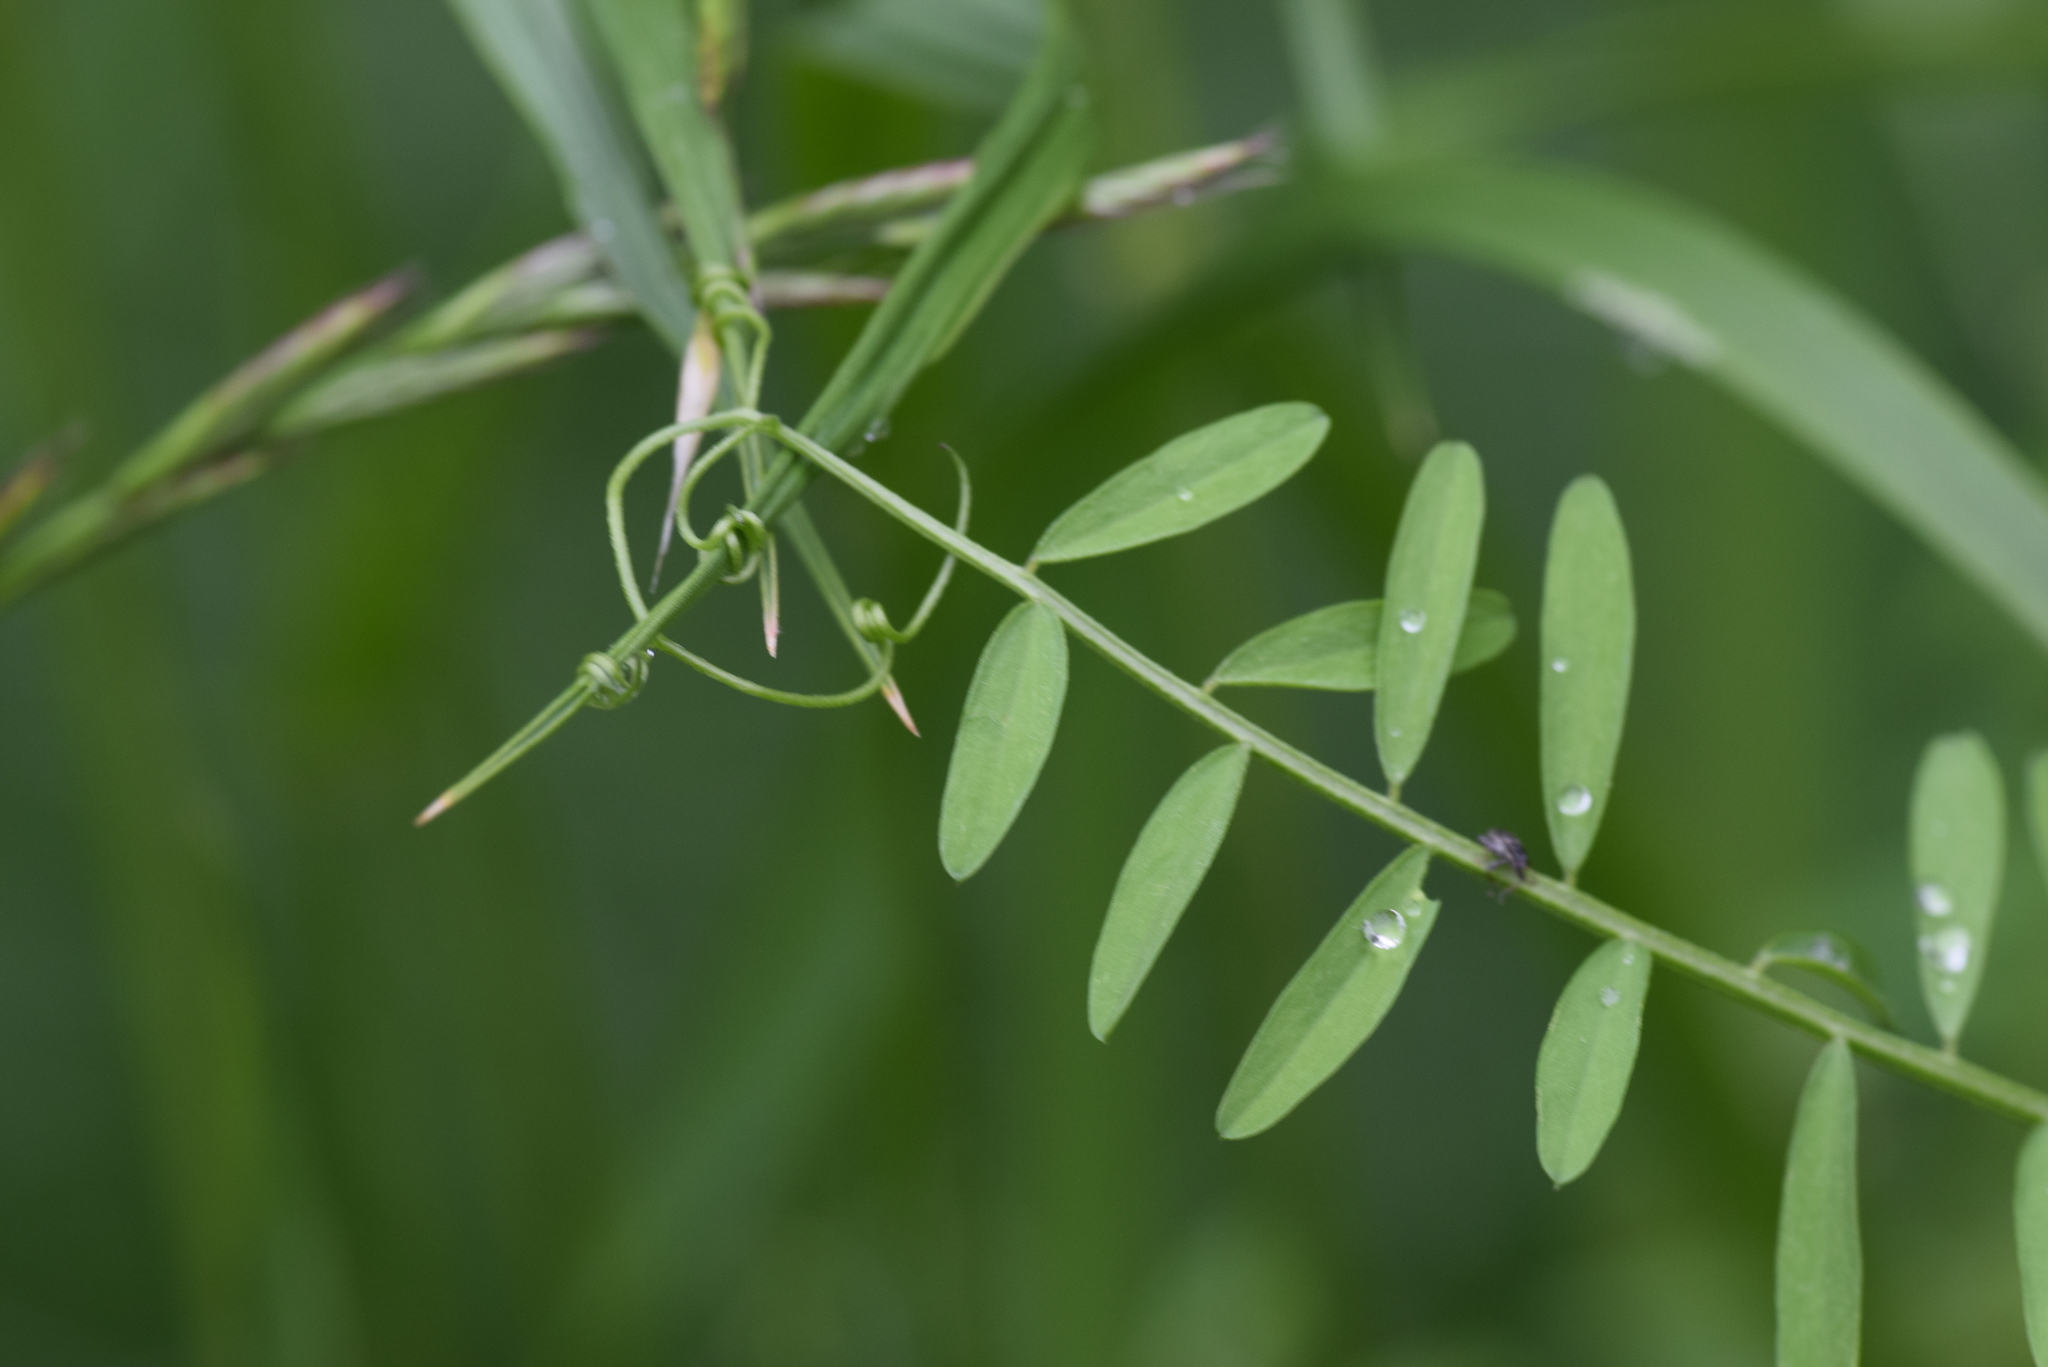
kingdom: Plantae
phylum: Tracheophyta
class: Magnoliopsida
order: Fabales
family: Fabaceae
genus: Vicia
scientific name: Vicia villosa
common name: Fodder vetch
